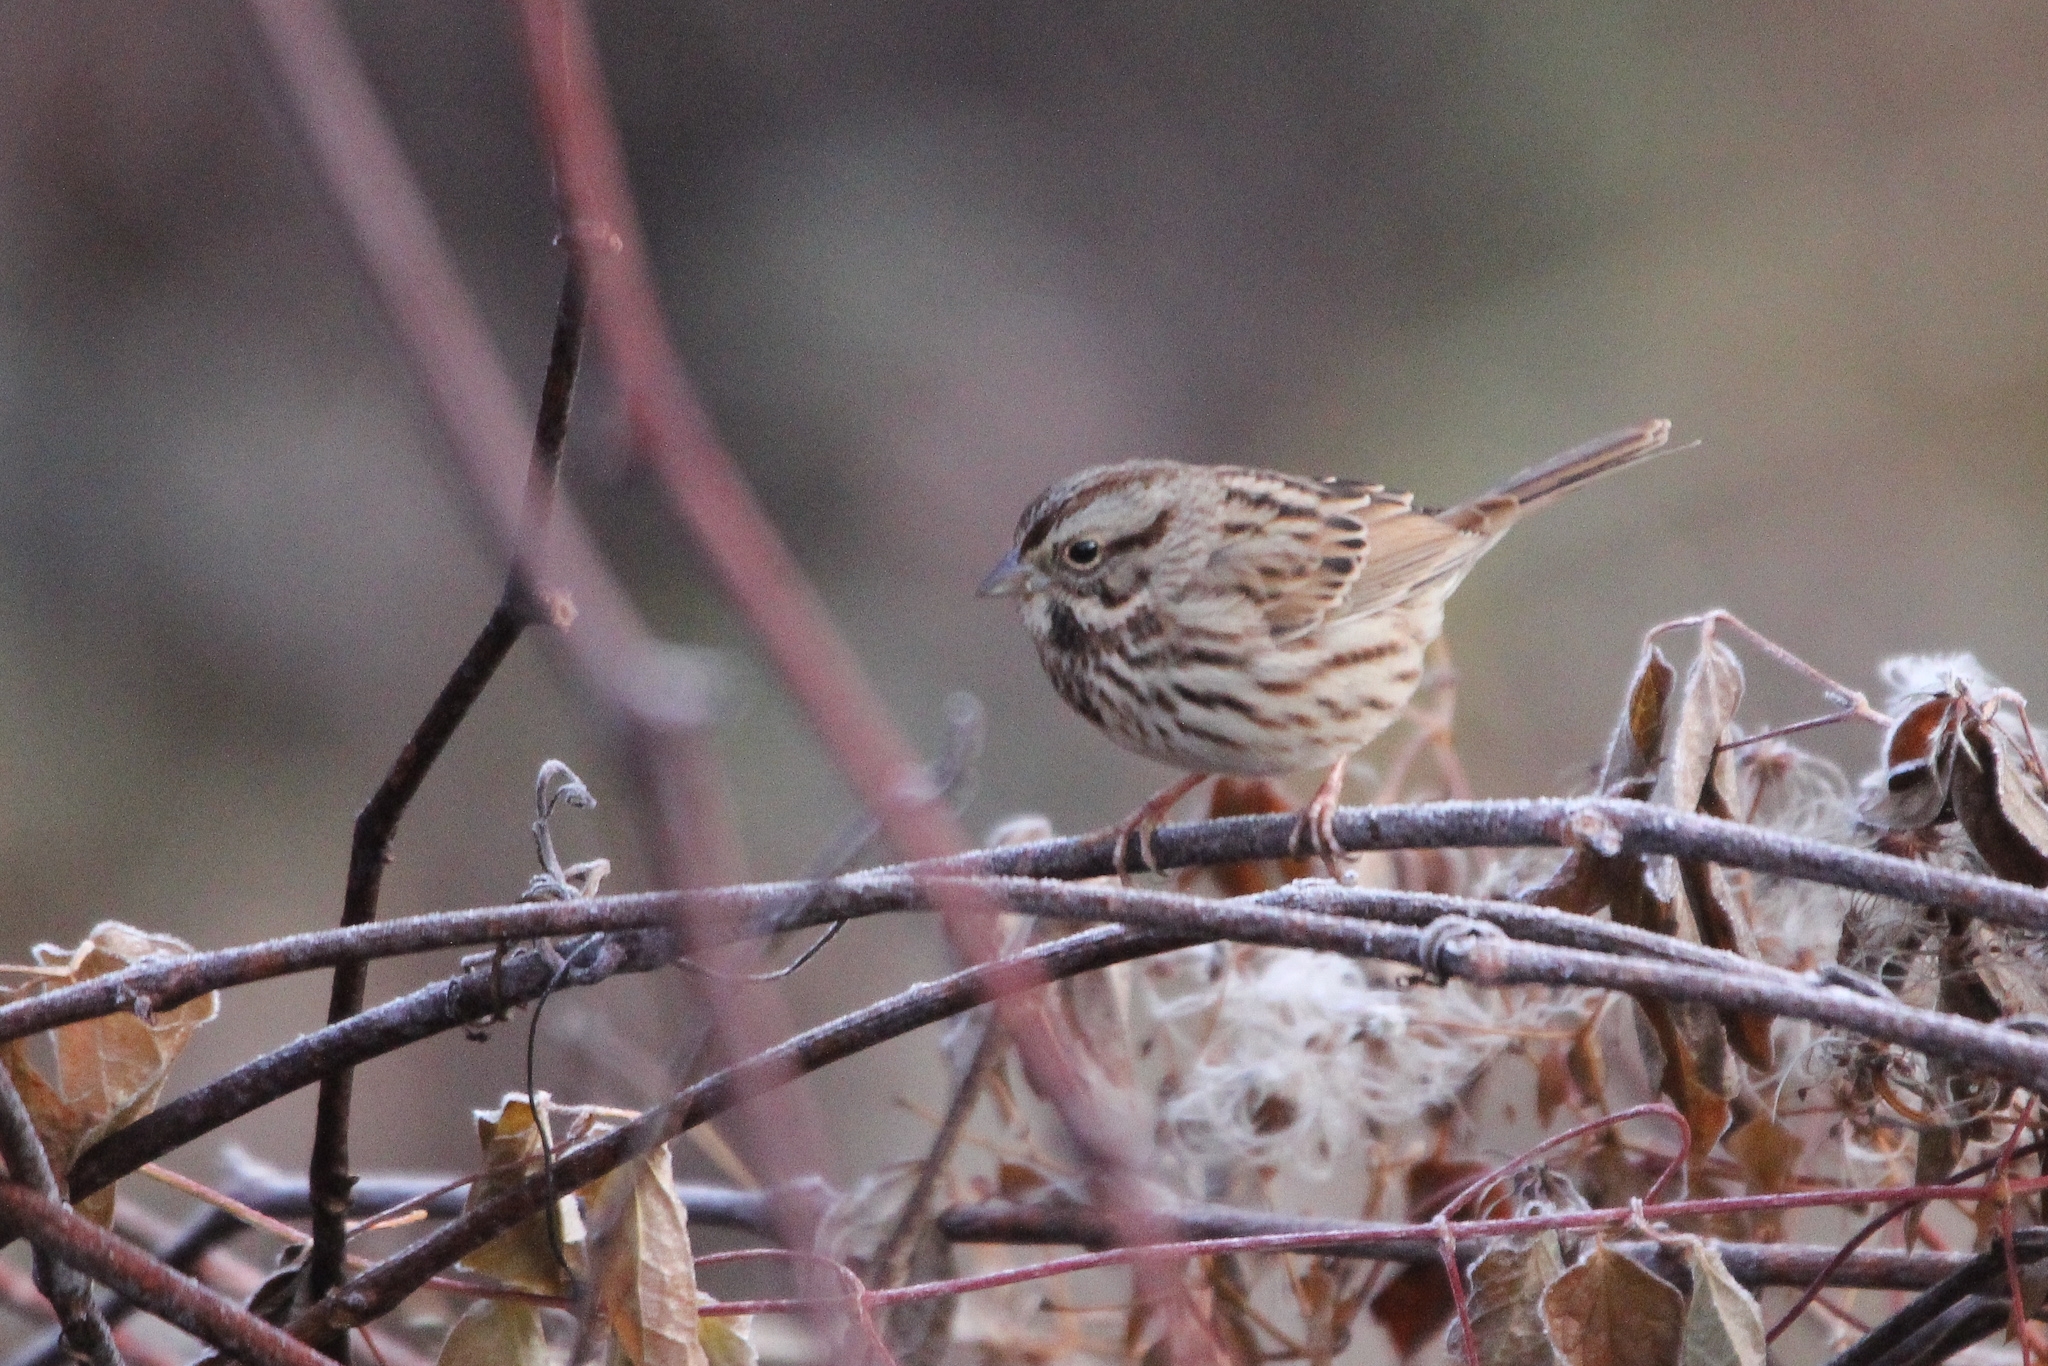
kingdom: Animalia
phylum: Chordata
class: Aves
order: Passeriformes
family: Passerellidae
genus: Melospiza
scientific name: Melospiza melodia
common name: Song sparrow
